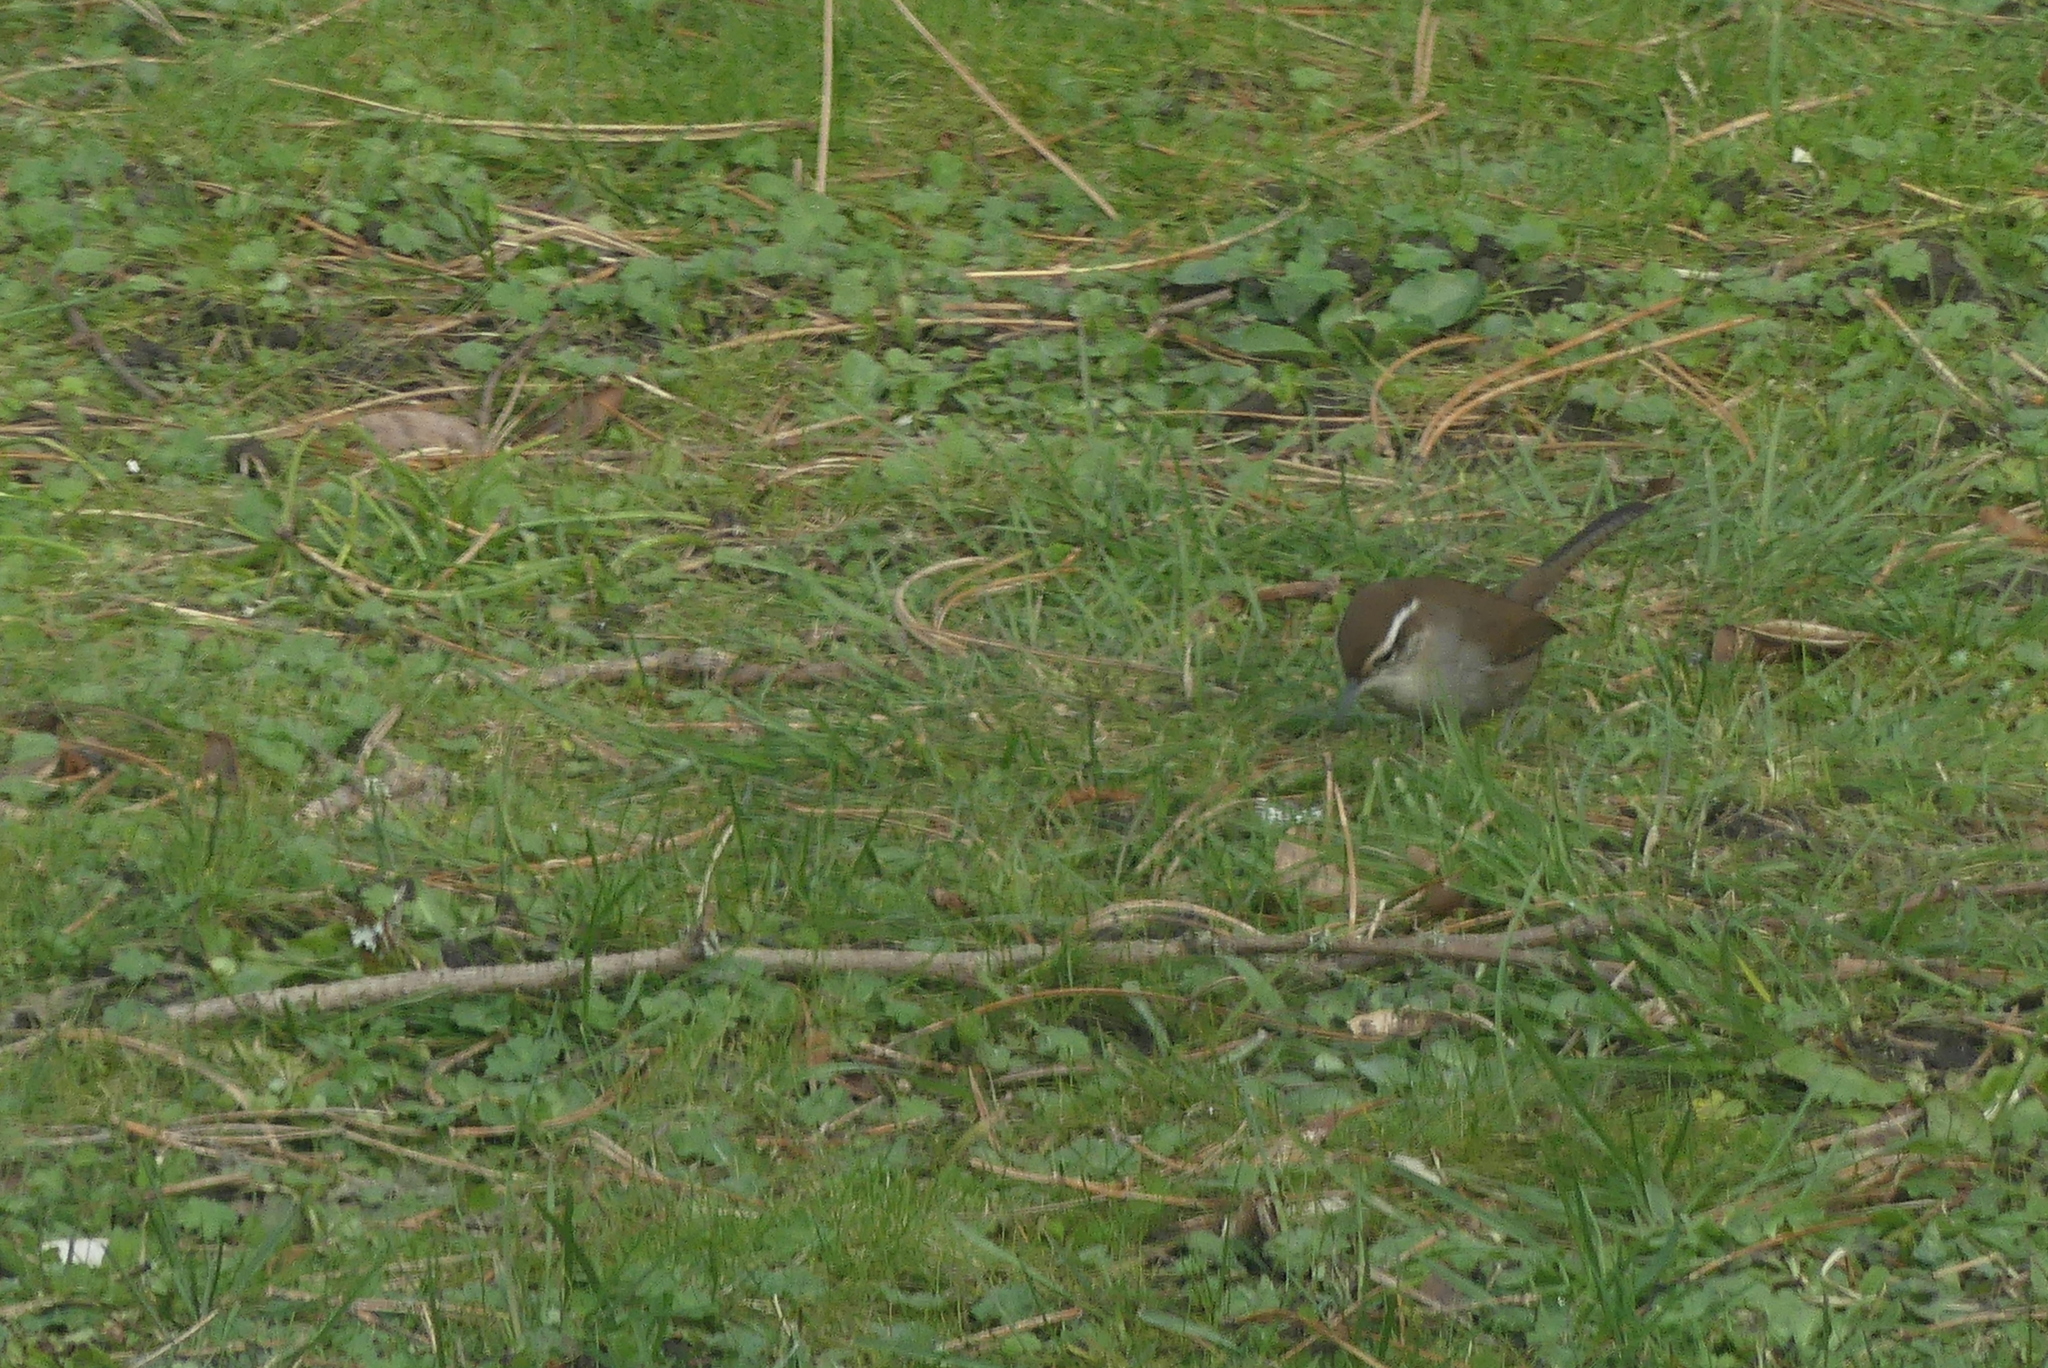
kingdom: Animalia
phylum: Chordata
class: Aves
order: Passeriformes
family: Troglodytidae
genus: Thryomanes
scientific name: Thryomanes bewickii
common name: Bewick's wren
